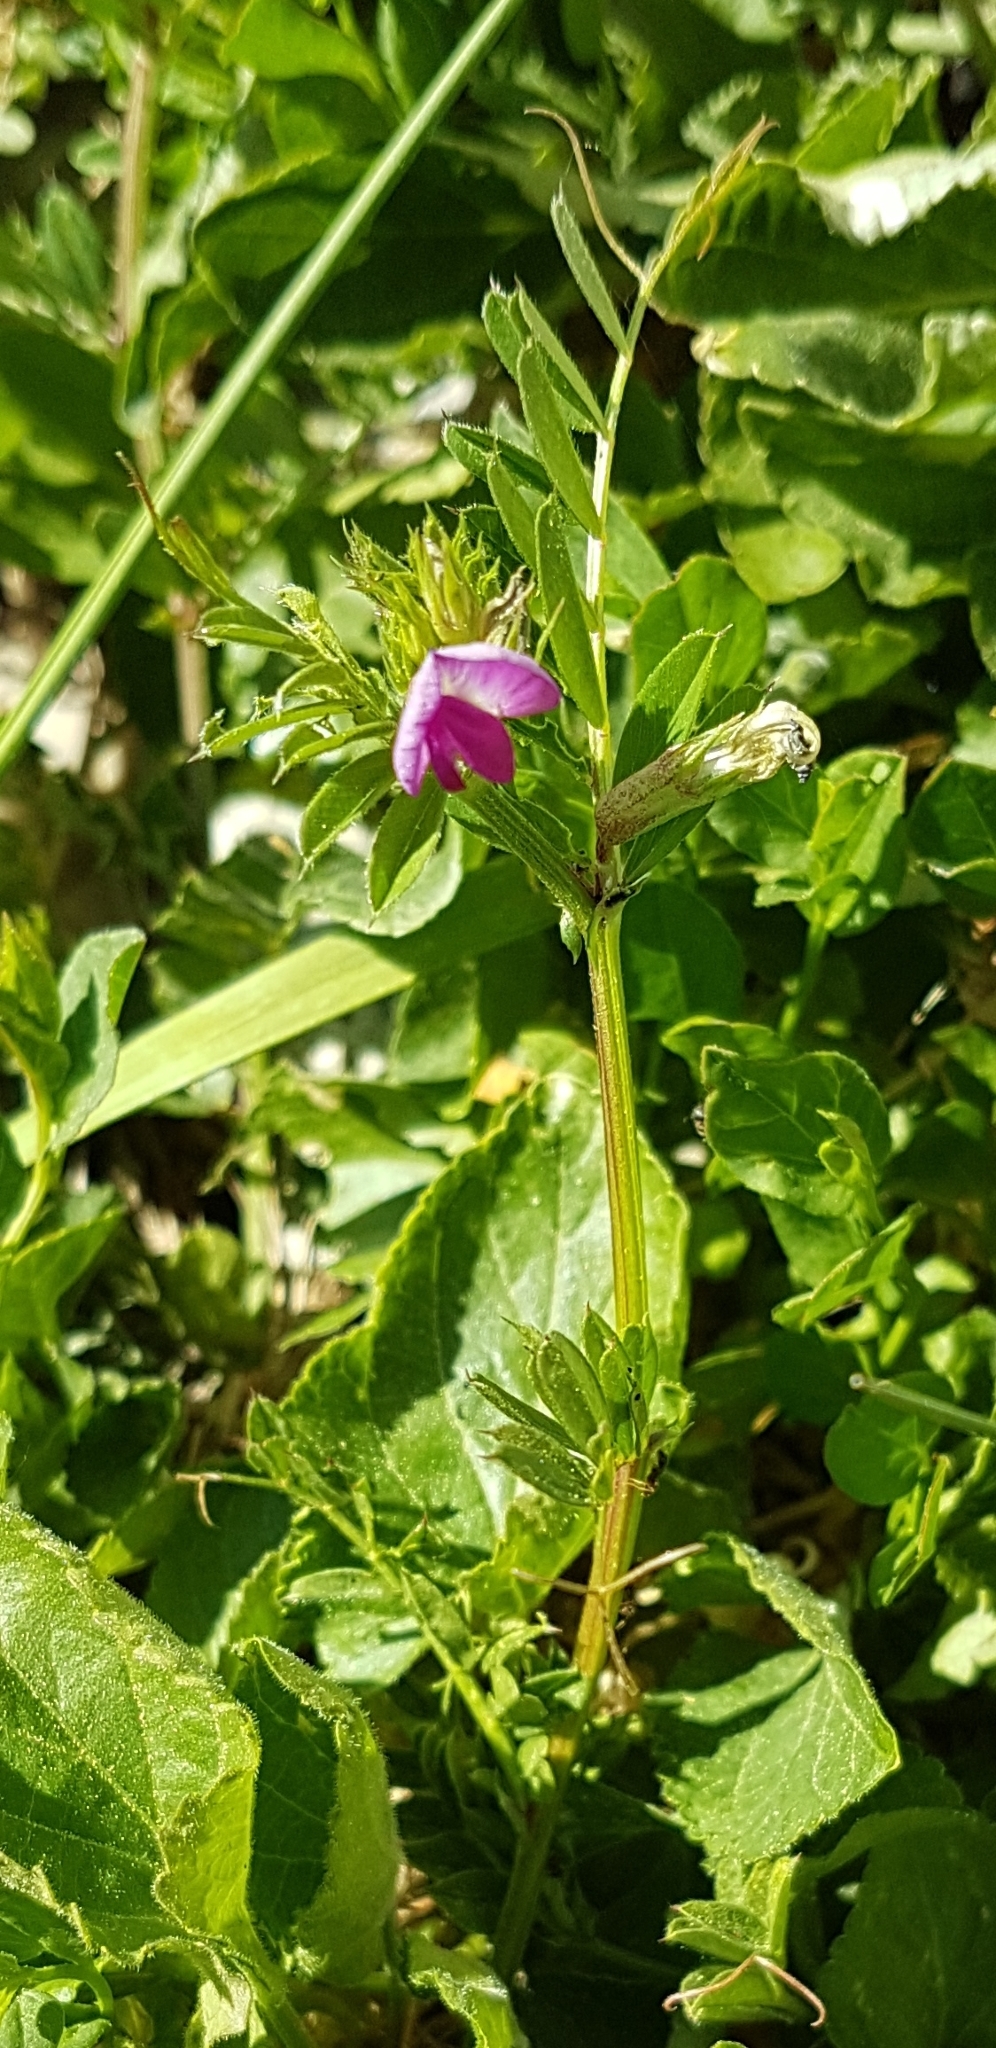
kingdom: Plantae
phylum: Tracheophyta
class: Magnoliopsida
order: Fabales
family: Fabaceae
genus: Vicia
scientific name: Vicia sativa
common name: Garden vetch
